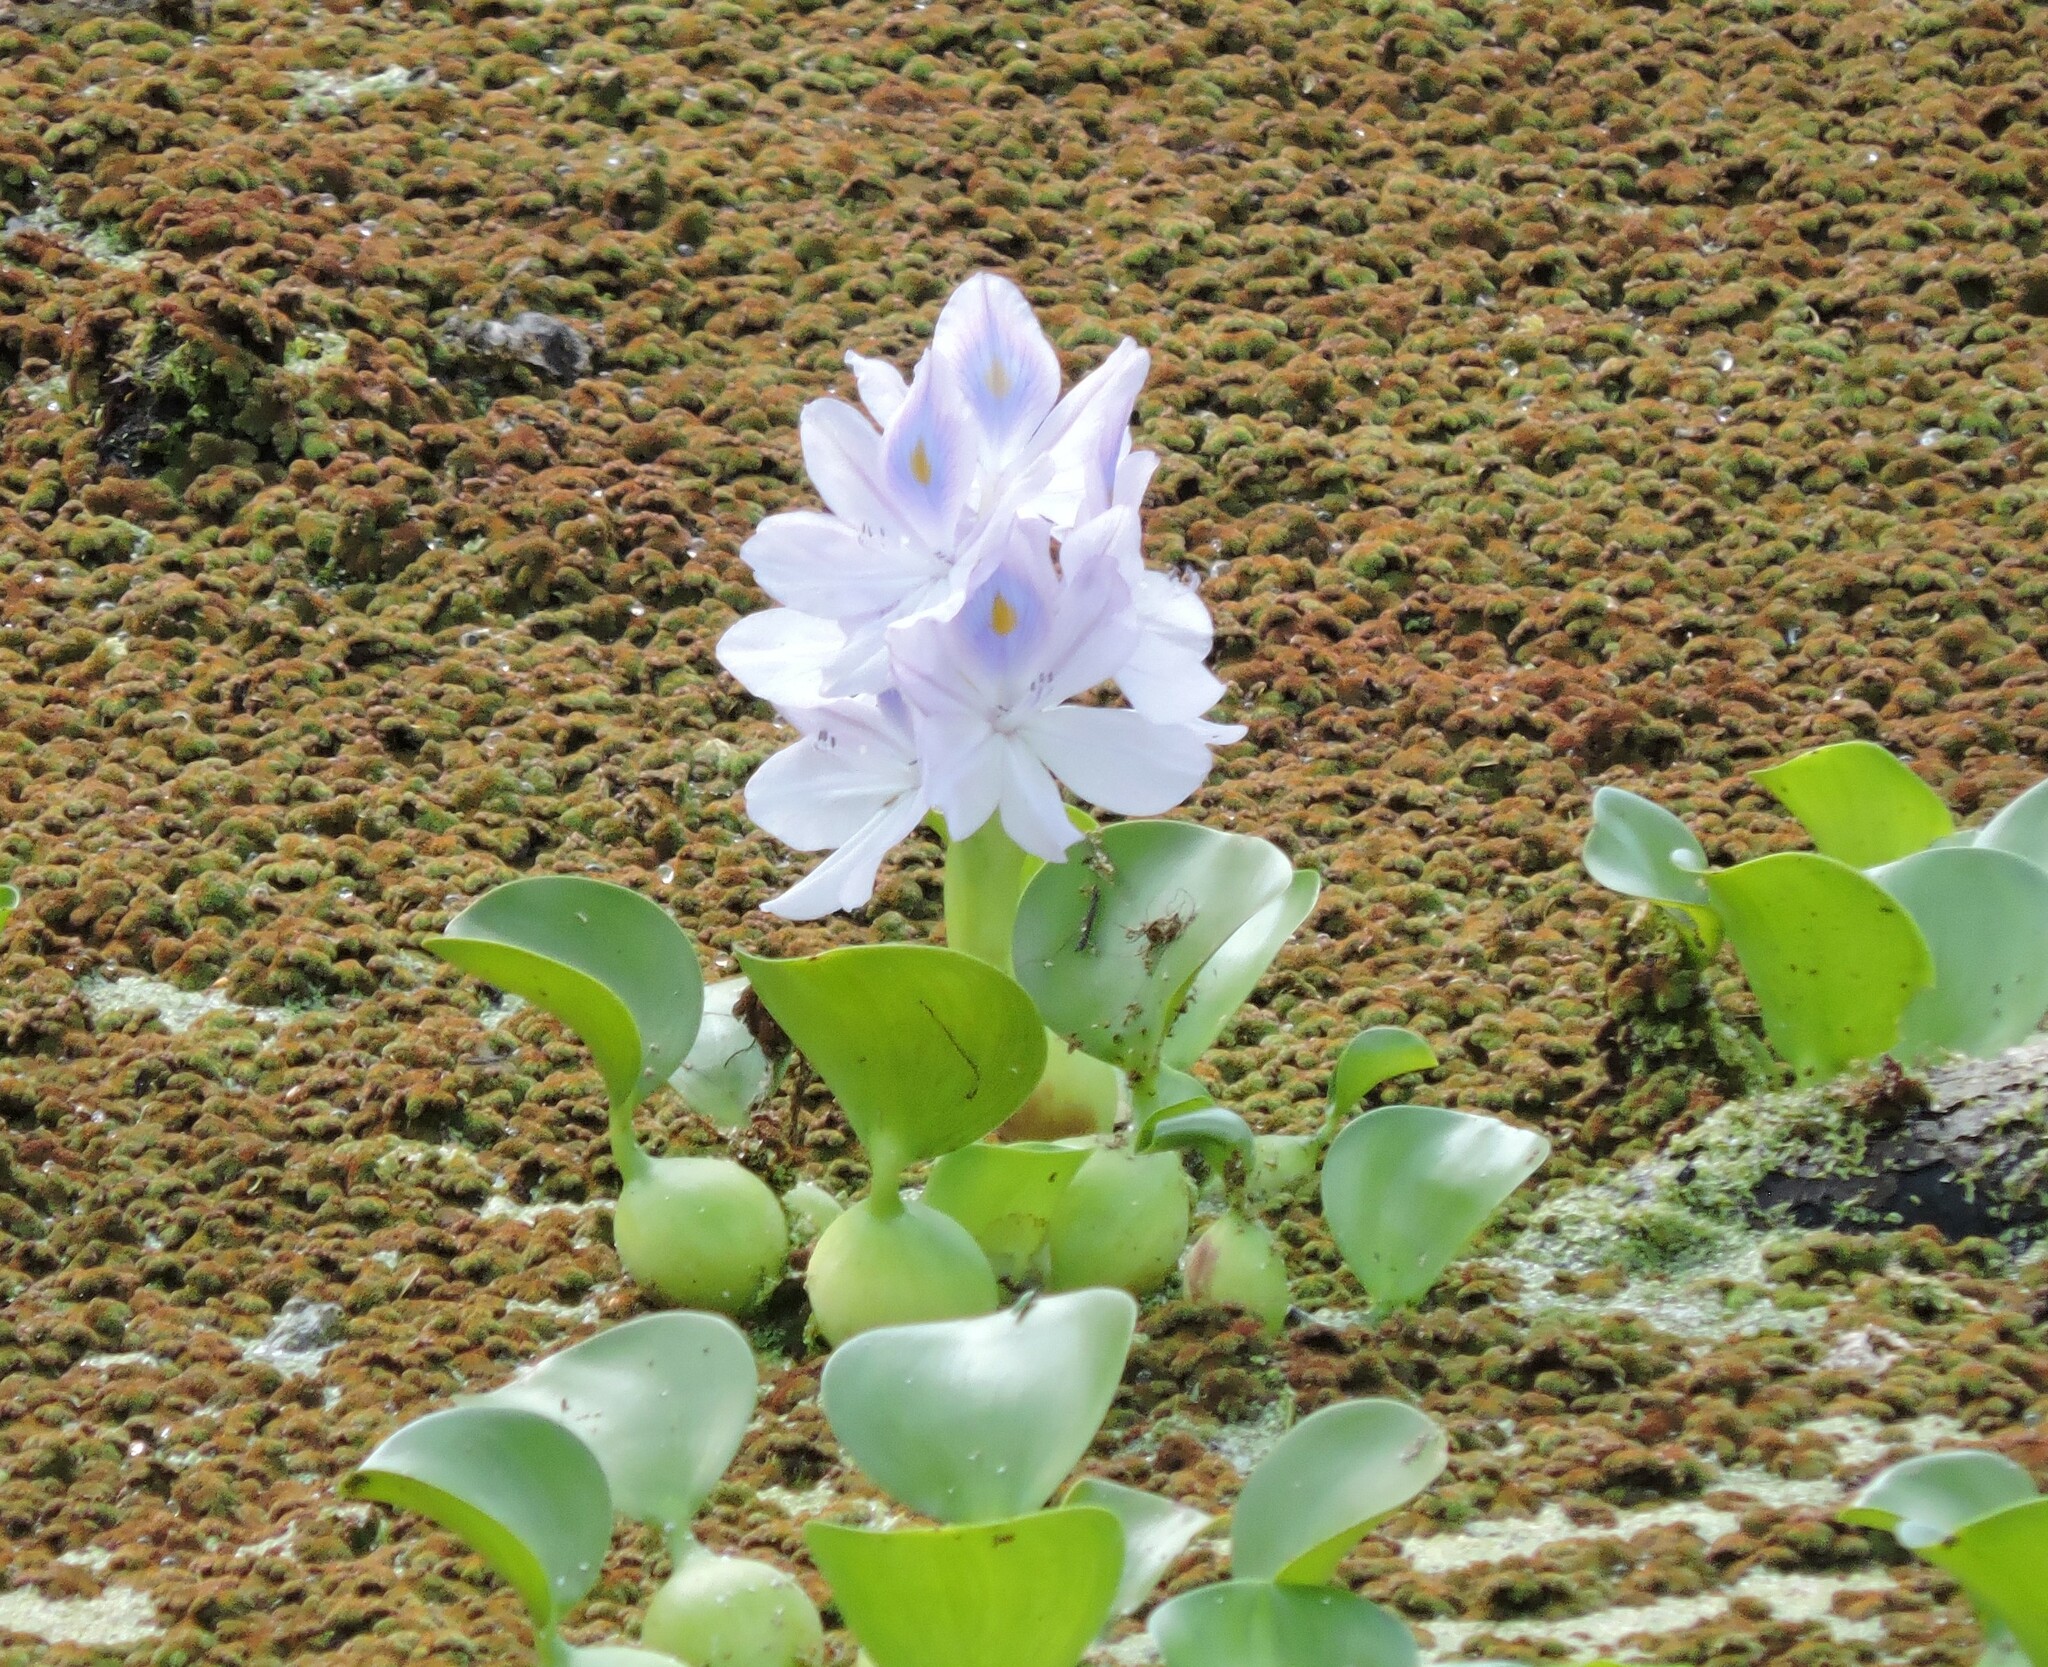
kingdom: Plantae
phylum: Tracheophyta
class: Liliopsida
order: Commelinales
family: Pontederiaceae
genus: Pontederia
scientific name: Pontederia crassipes
